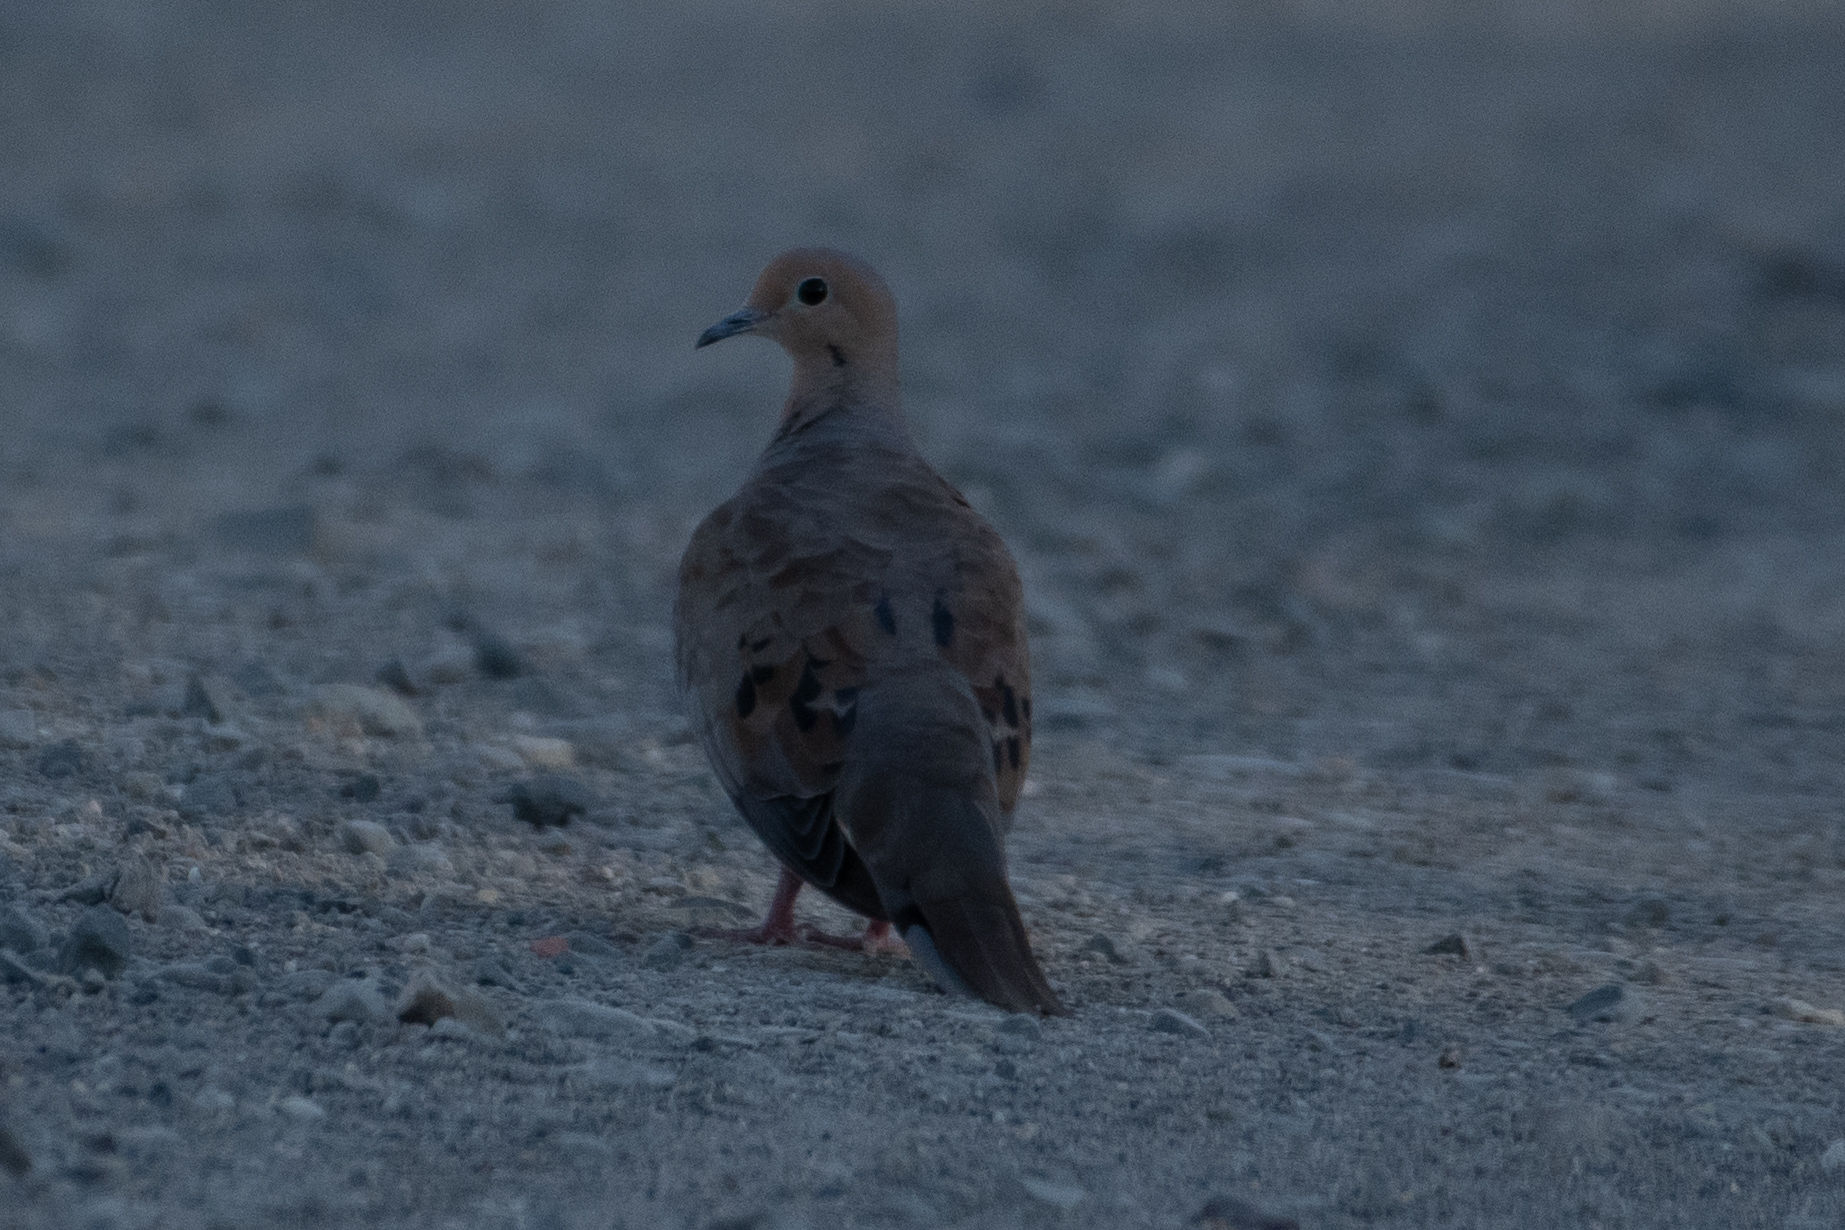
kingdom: Animalia
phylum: Chordata
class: Aves
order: Columbiformes
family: Columbidae
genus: Zenaida
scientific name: Zenaida macroura
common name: Mourning dove
